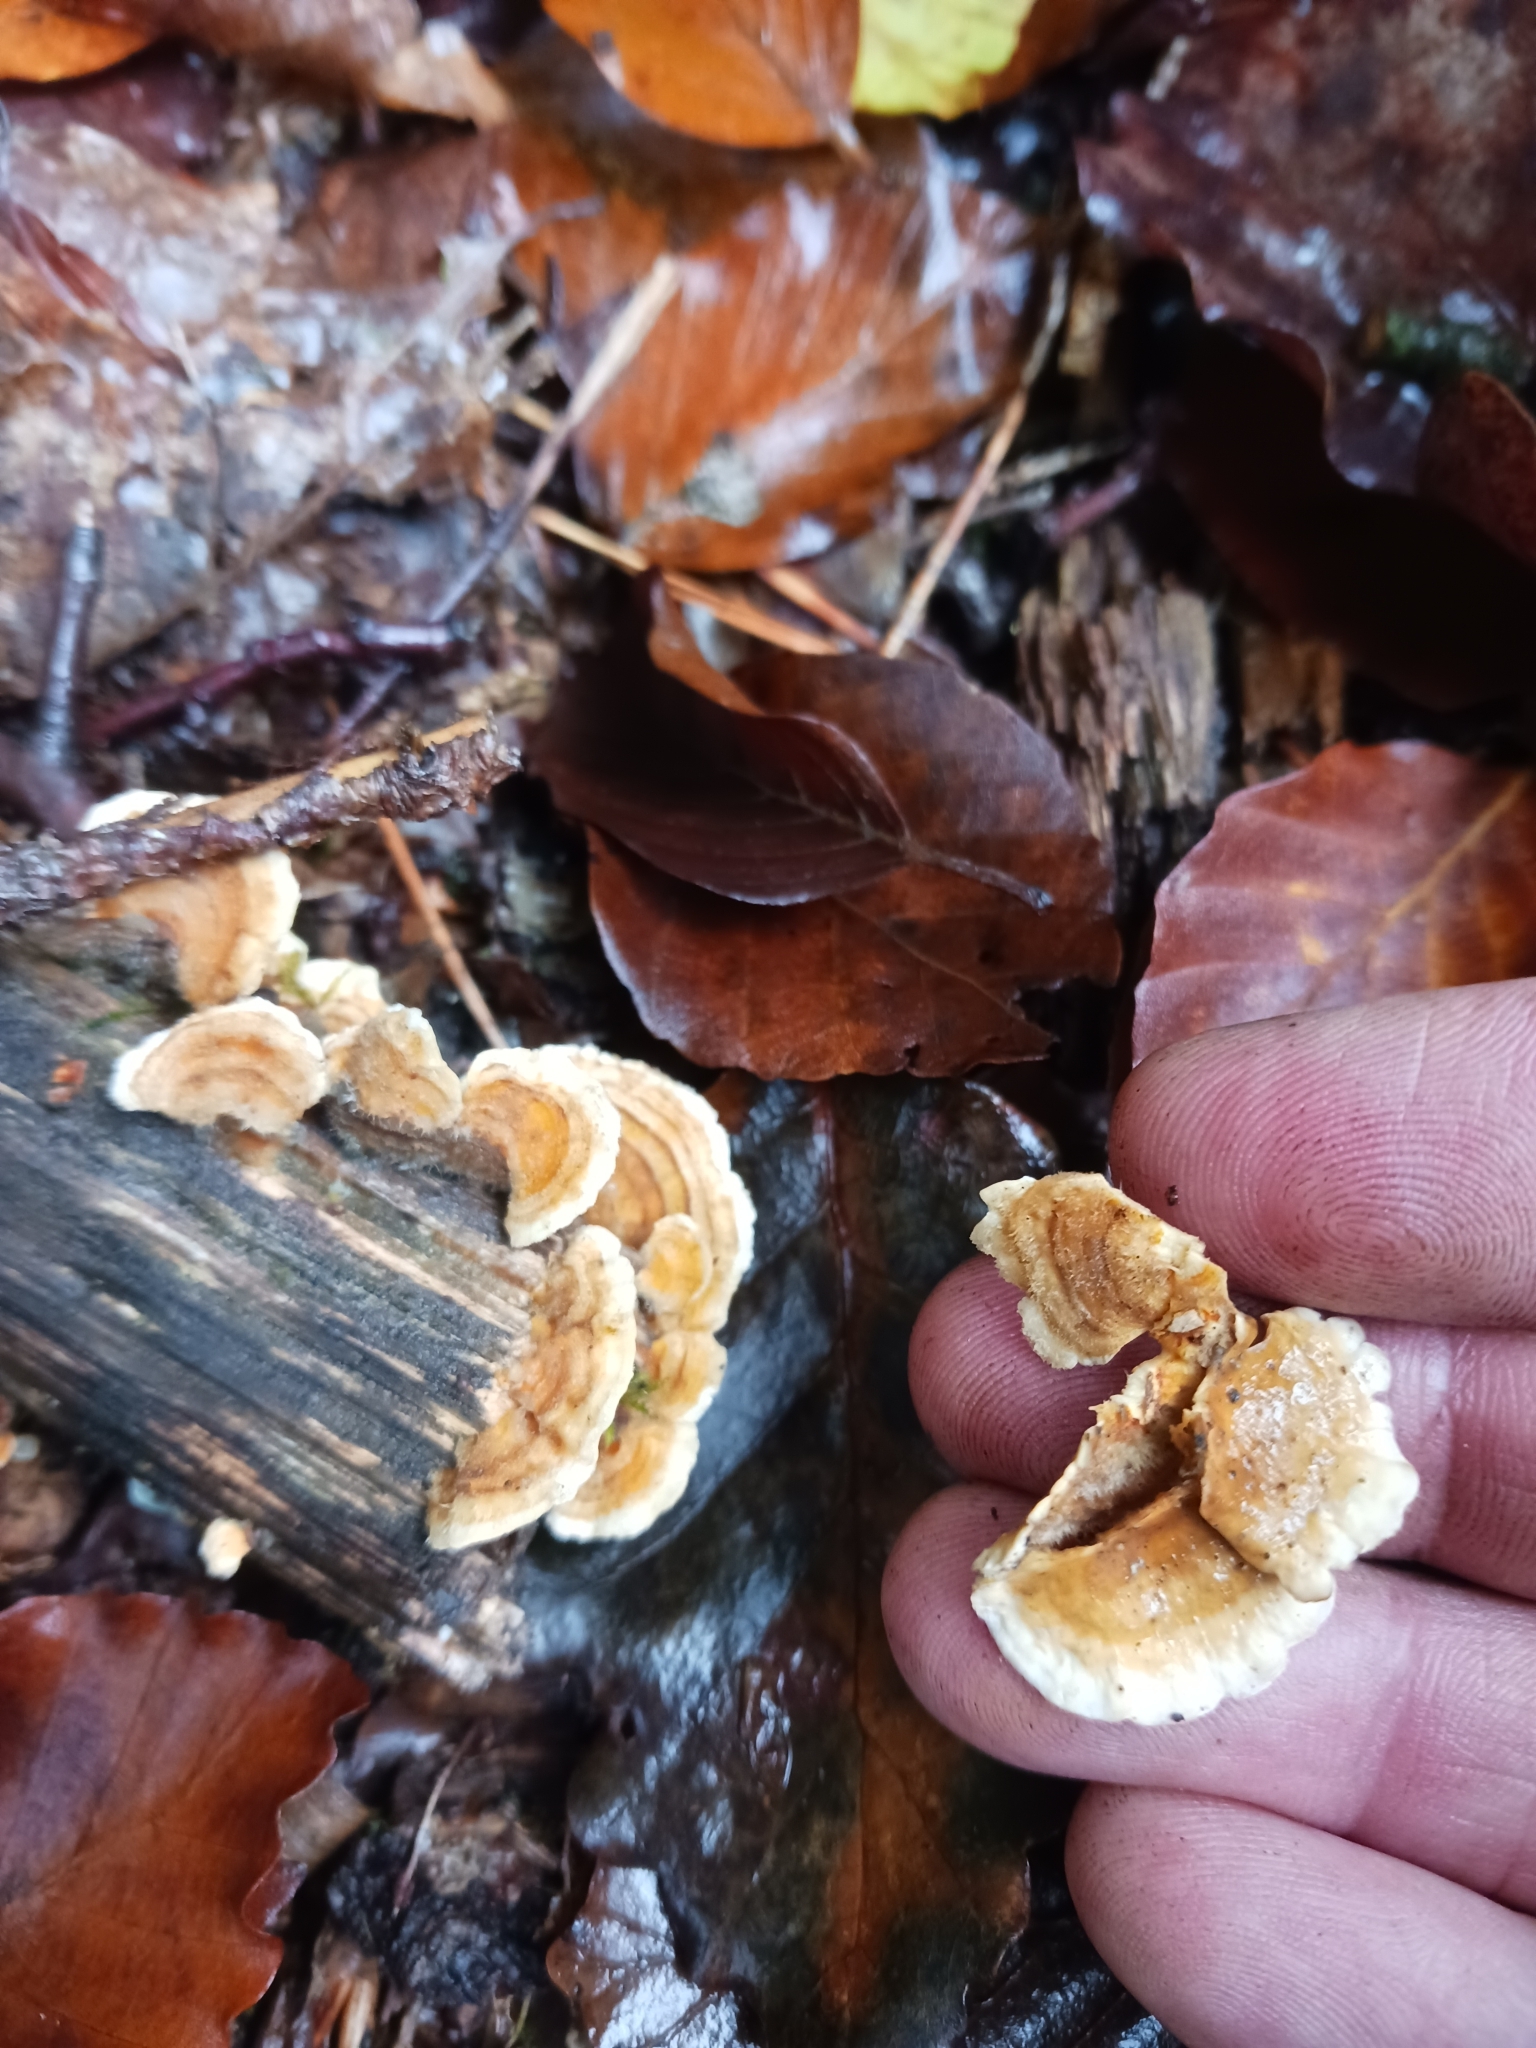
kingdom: Fungi
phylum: Basidiomycota
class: Agaricomycetes
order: Russulales
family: Stereaceae
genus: Stereum
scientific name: Stereum hirsutum
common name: Hairy curtain crust
